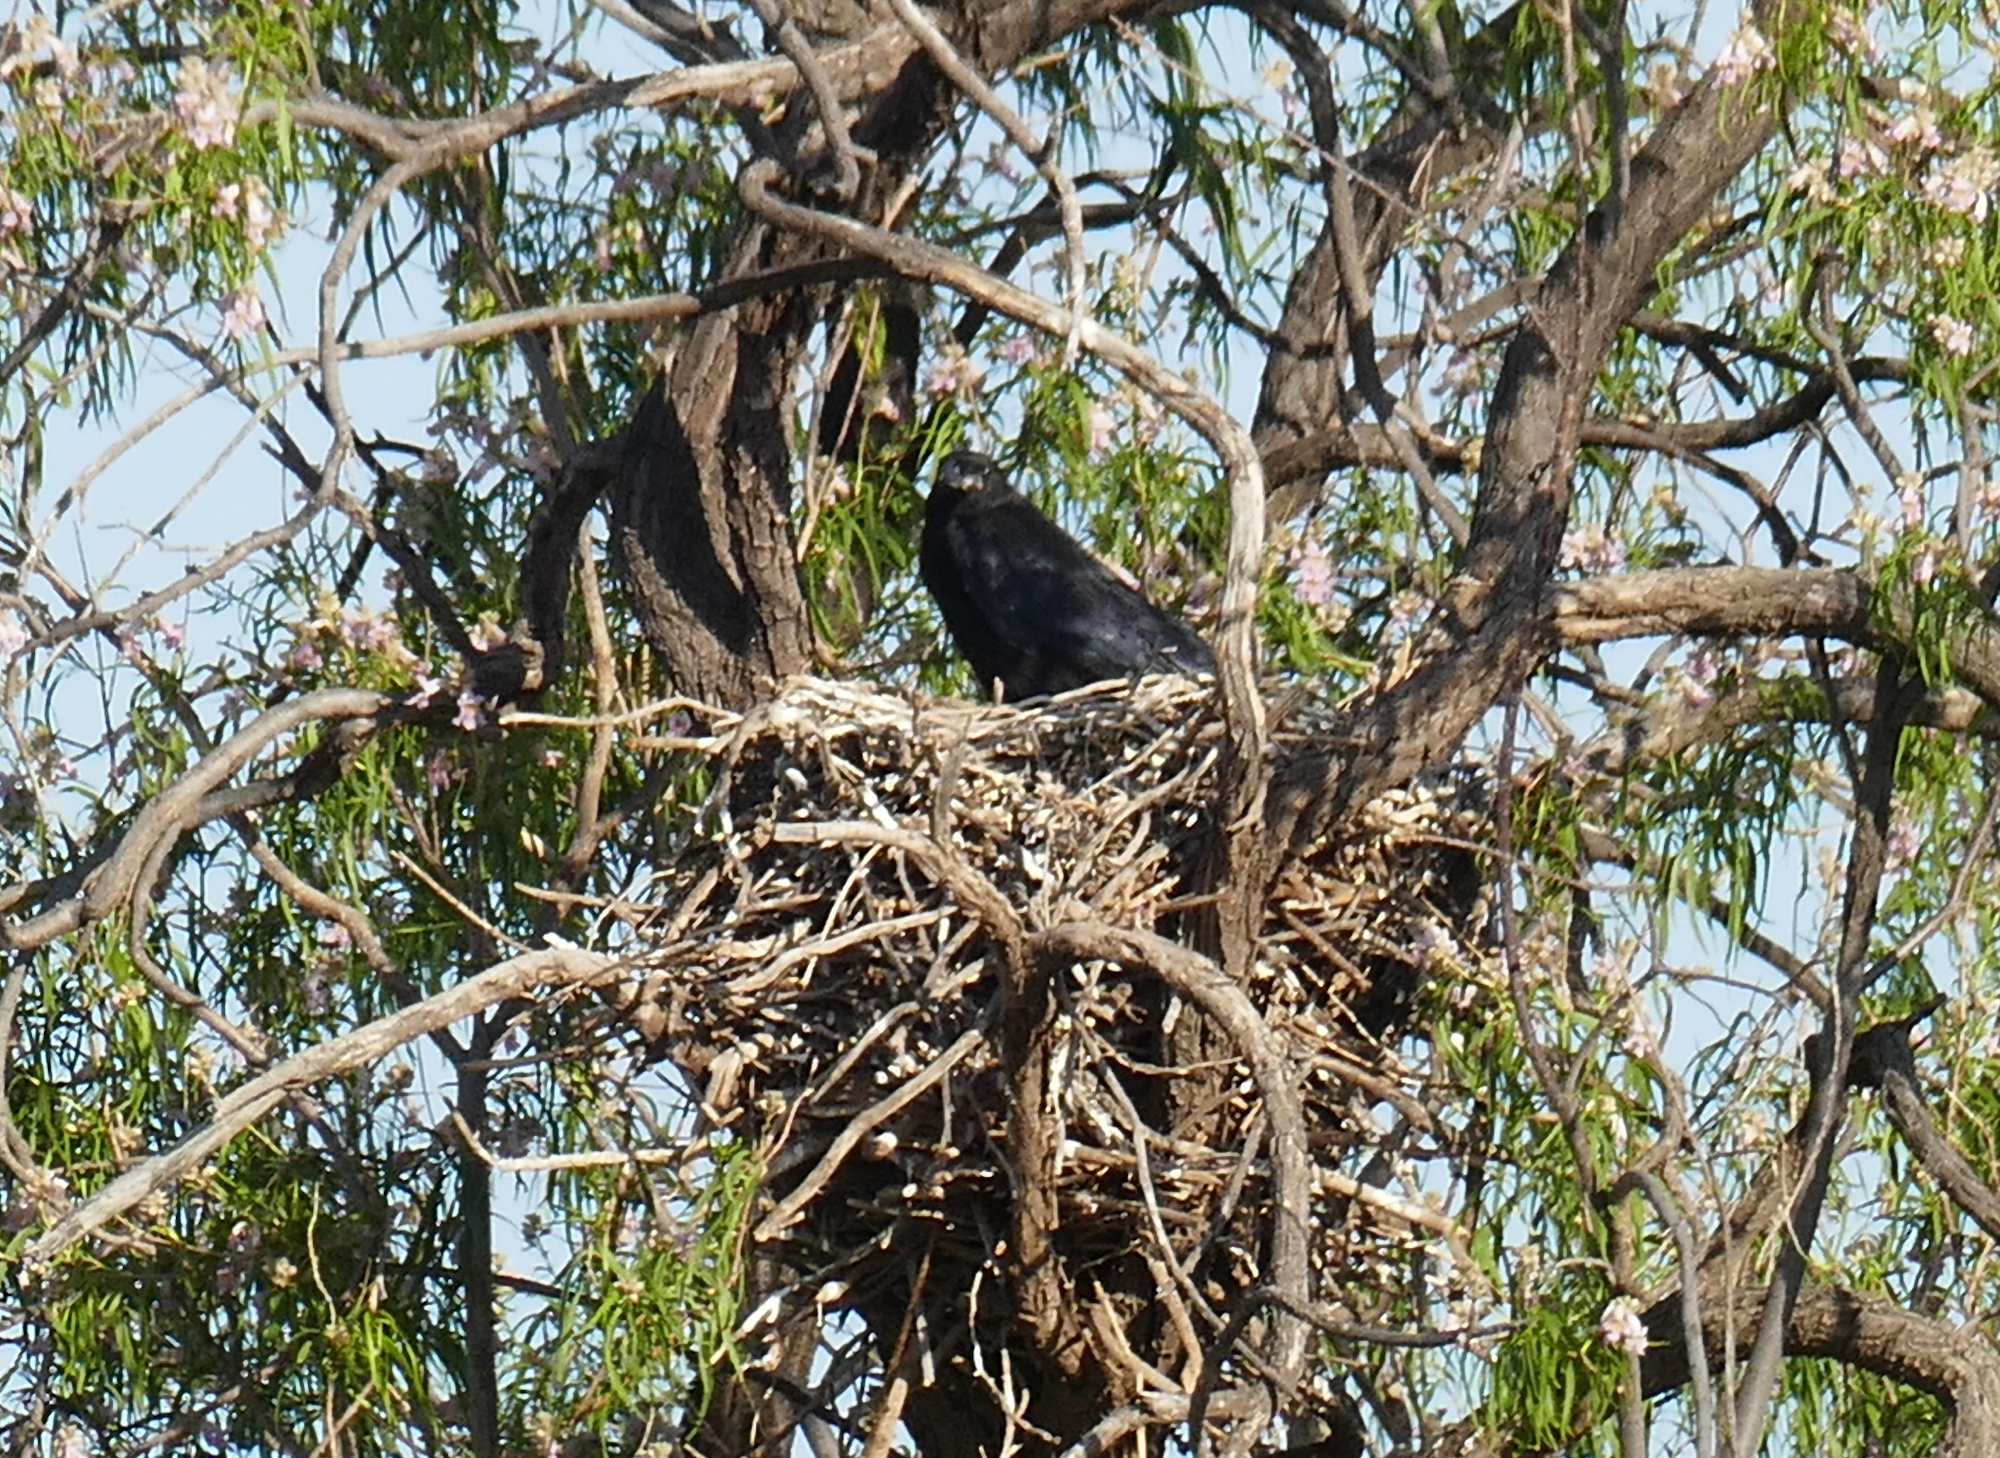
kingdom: Animalia
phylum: Chordata
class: Aves
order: Passeriformes
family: Corvidae
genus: Corvus
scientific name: Corvus cryptoleucus
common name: Chihuahuan raven
